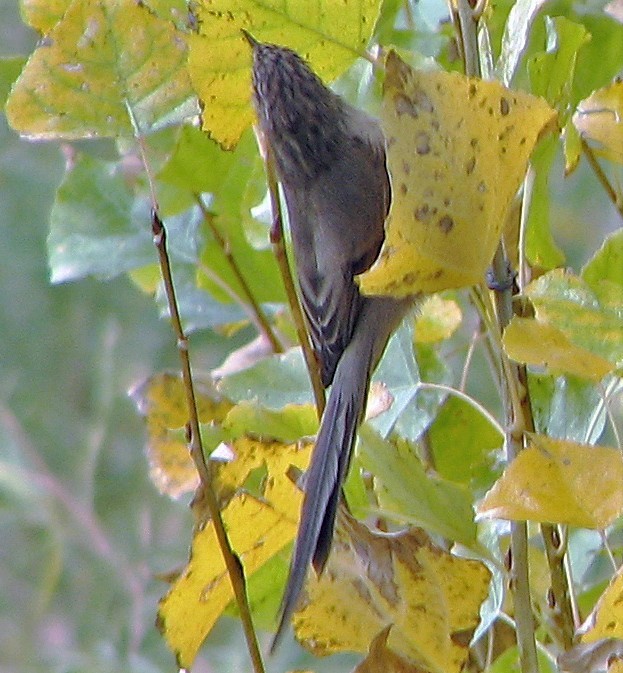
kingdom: Animalia
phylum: Chordata
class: Aves
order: Passeriformes
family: Furnariidae
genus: Leptasthenura
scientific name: Leptasthenura aegithaloides
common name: Plain-mantled tit-spinetail
